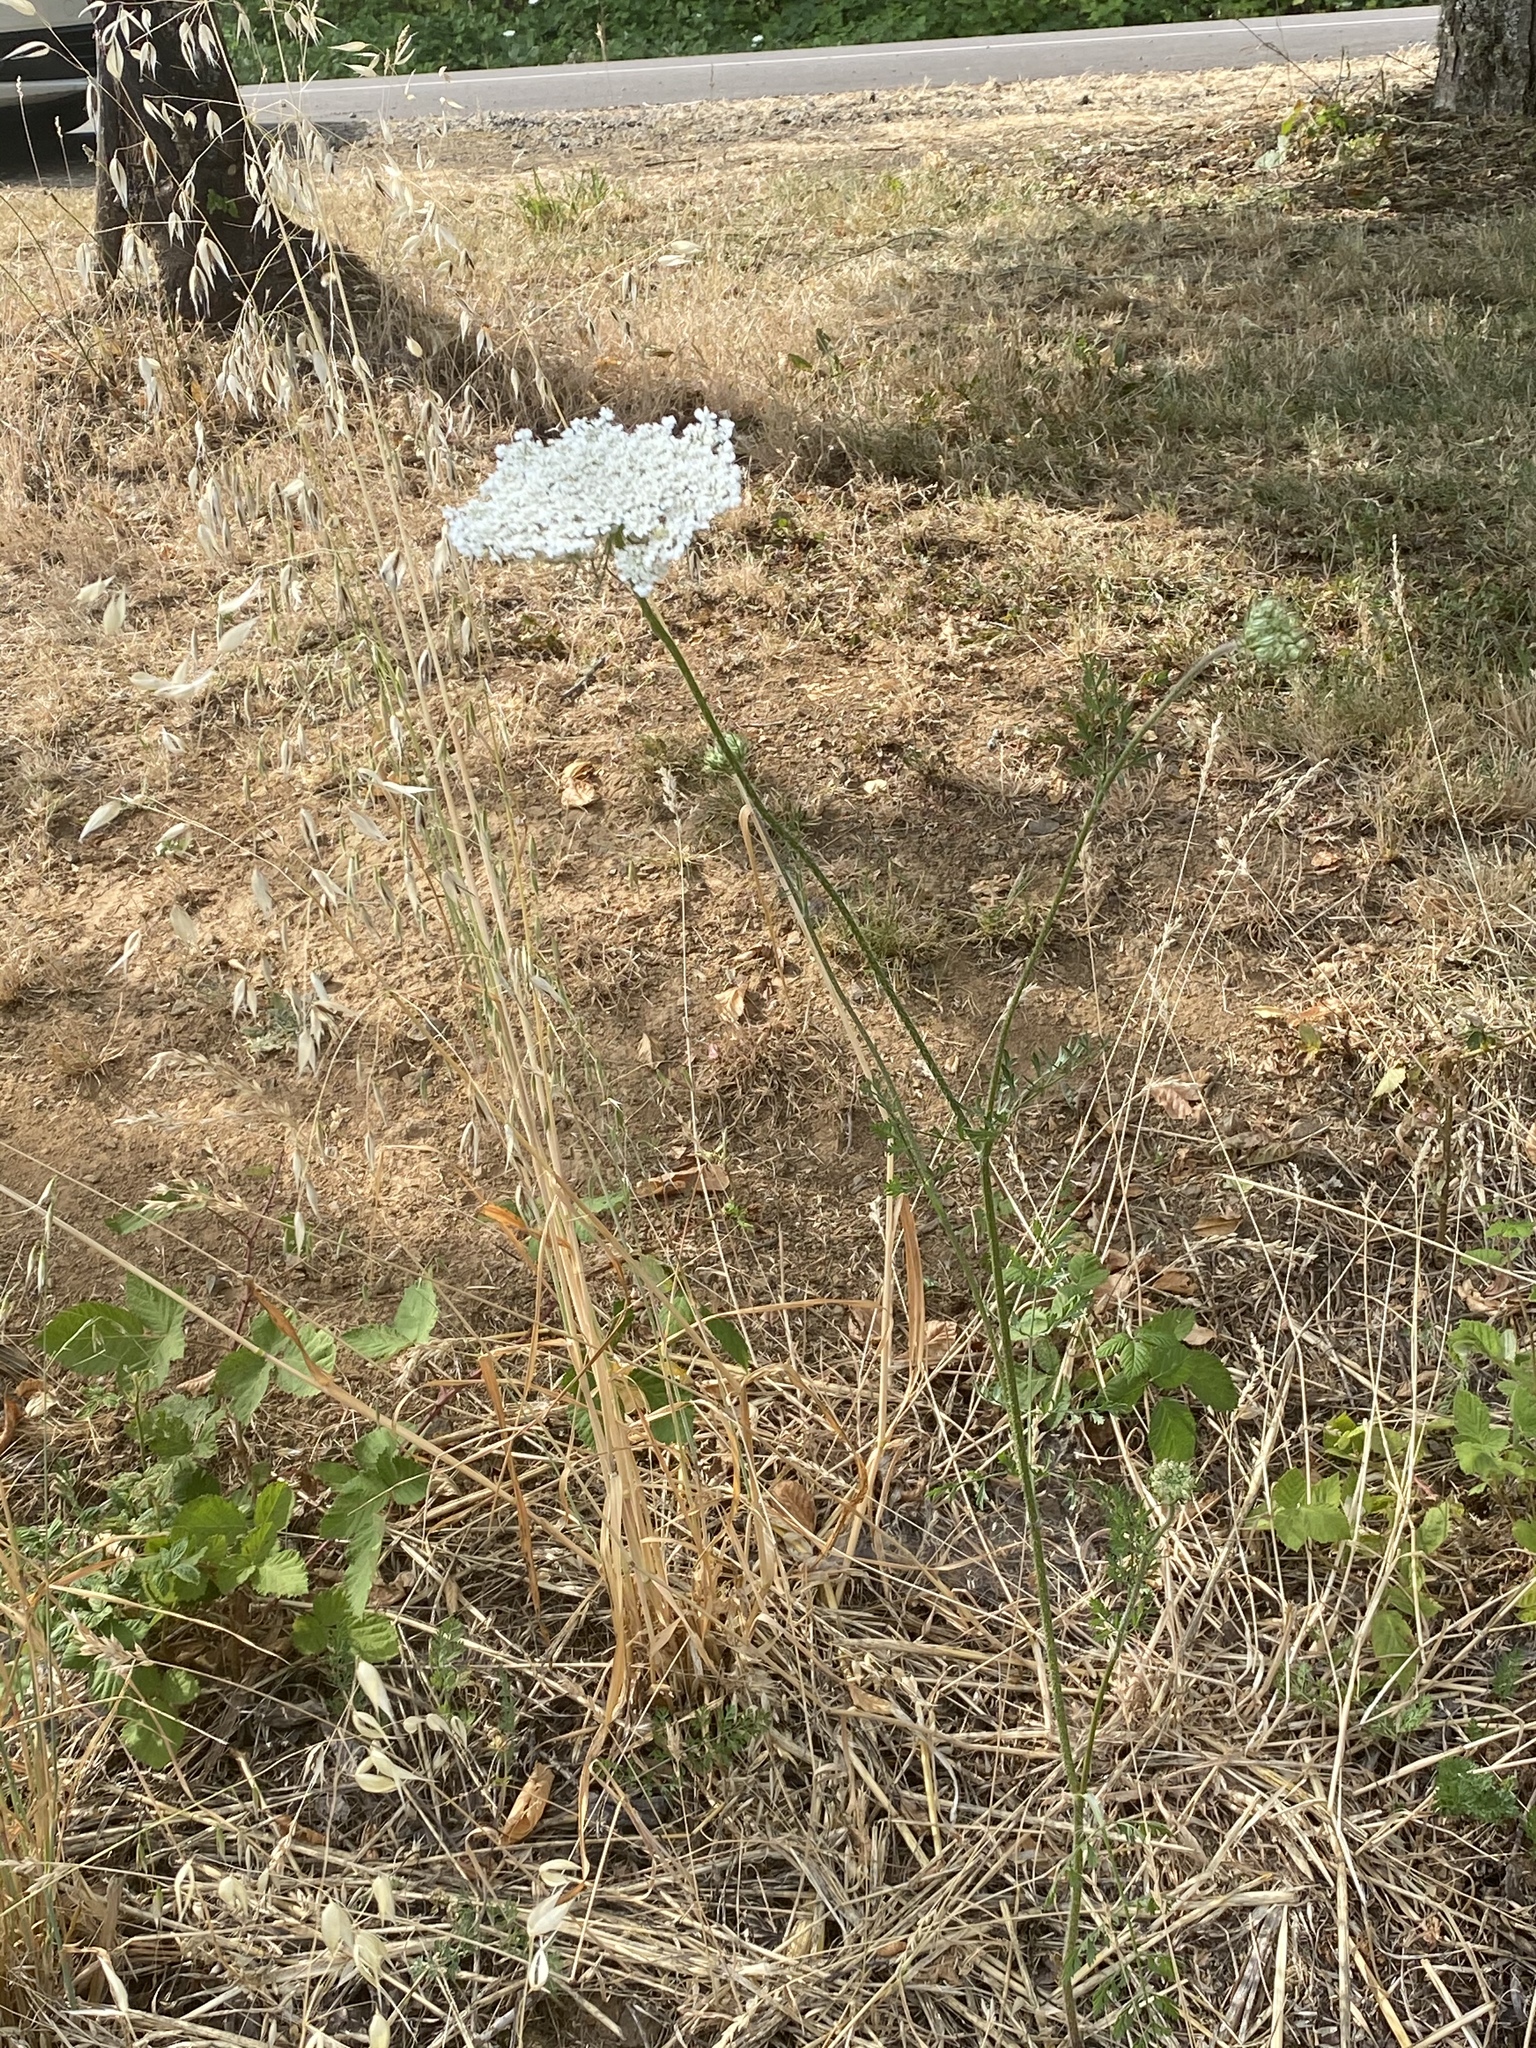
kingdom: Plantae
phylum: Tracheophyta
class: Magnoliopsida
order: Apiales
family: Apiaceae
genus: Daucus
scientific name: Daucus carota
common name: Wild carrot
